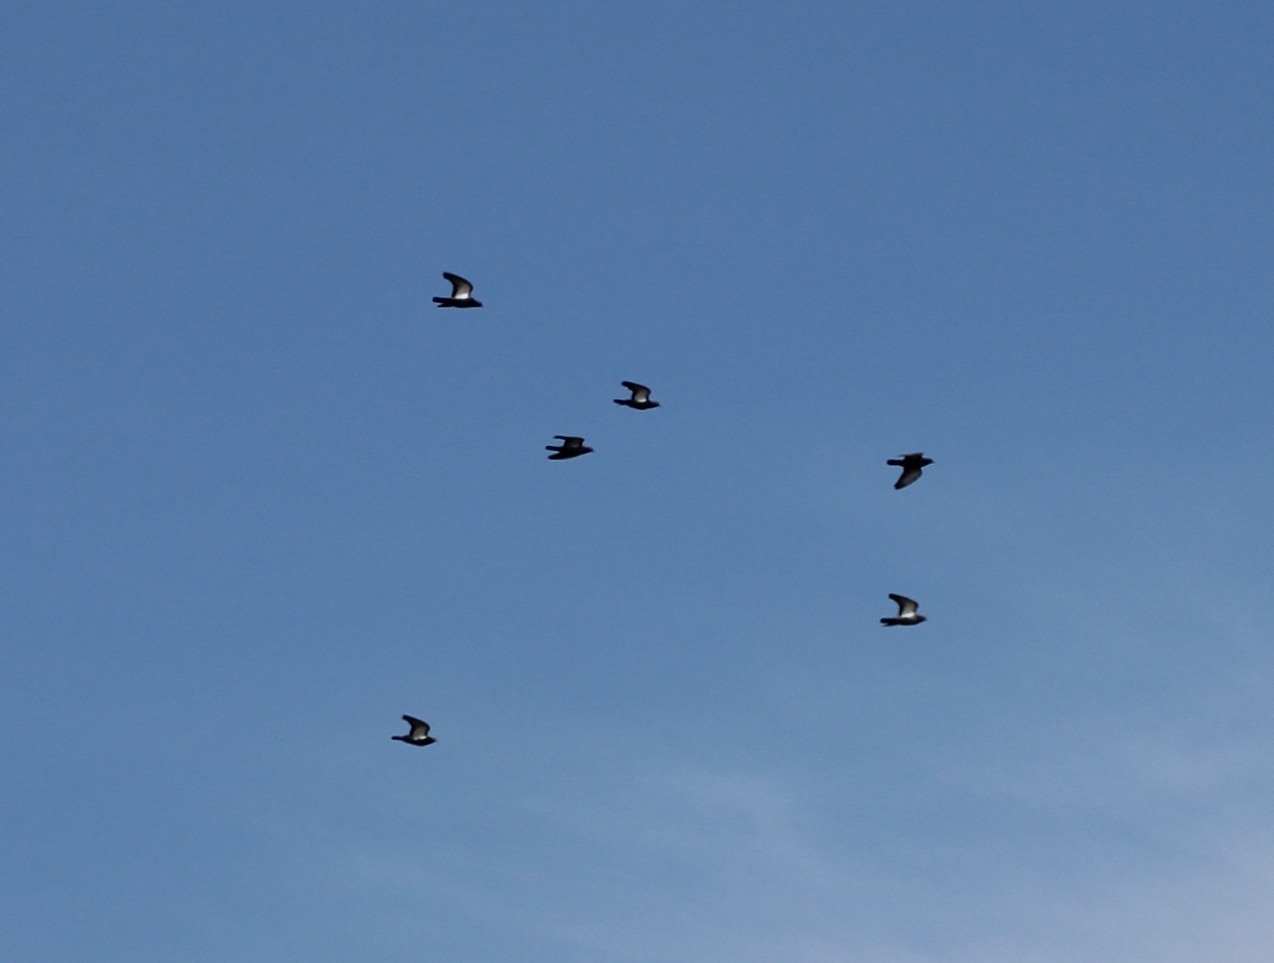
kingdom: Animalia
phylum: Chordata
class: Aves
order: Columbiformes
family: Columbidae
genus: Columba
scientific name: Columba livia
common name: Rock pigeon
